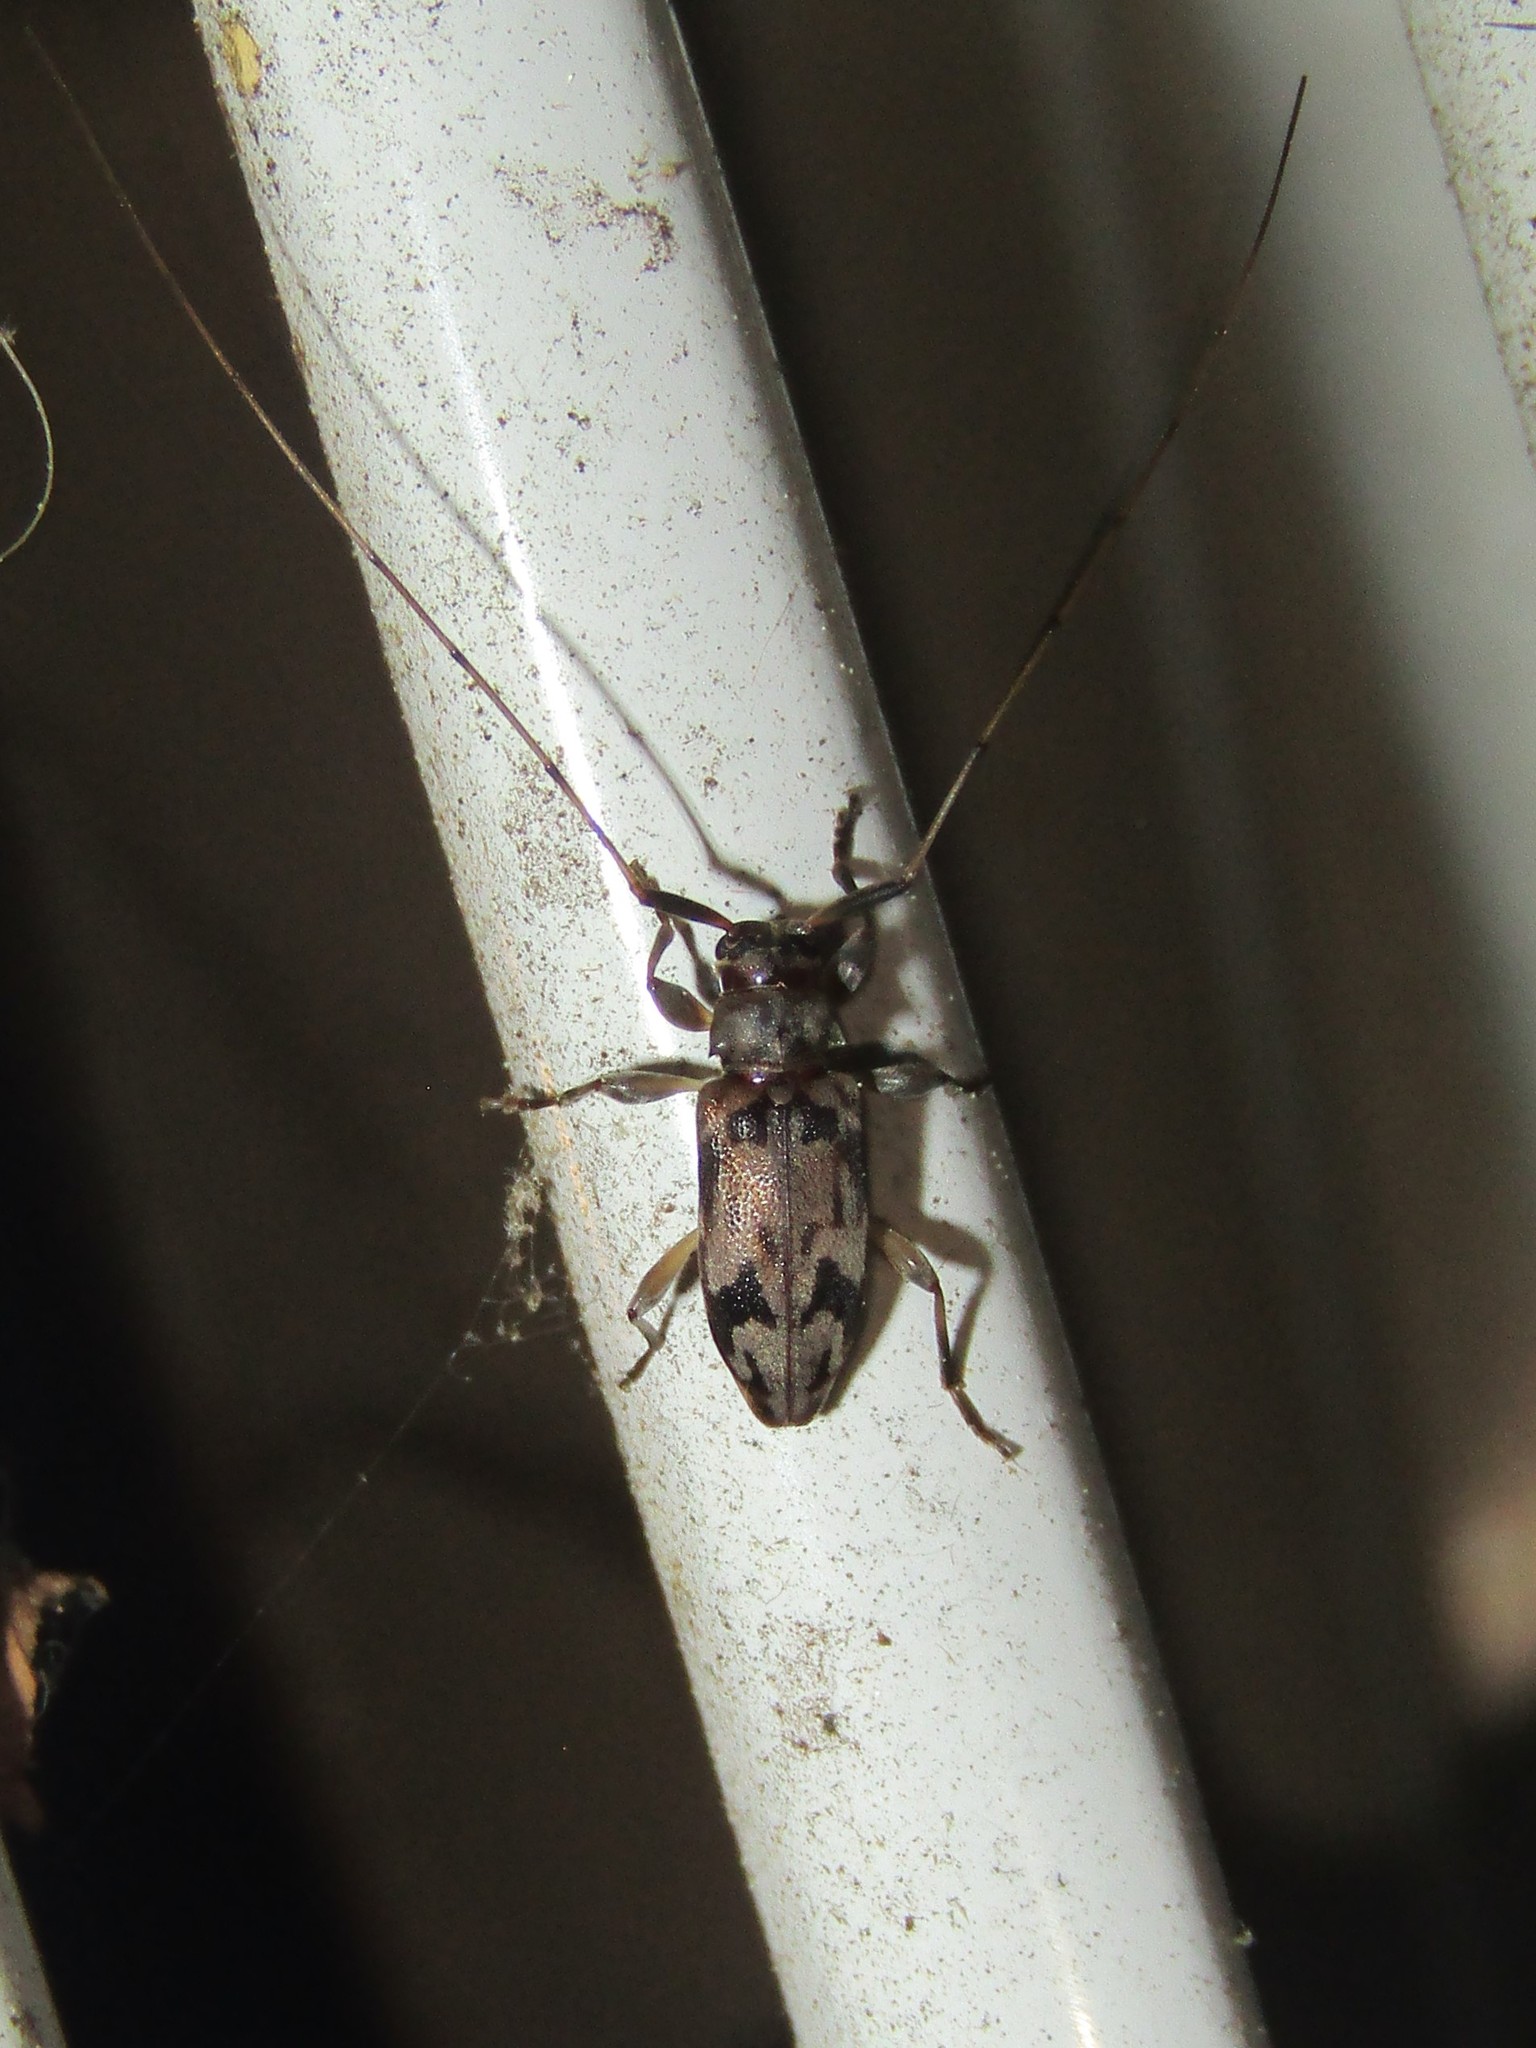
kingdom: Animalia
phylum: Arthropoda
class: Insecta
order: Coleoptera
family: Cerambycidae
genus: Urgleptes
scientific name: Urgleptes signatus
